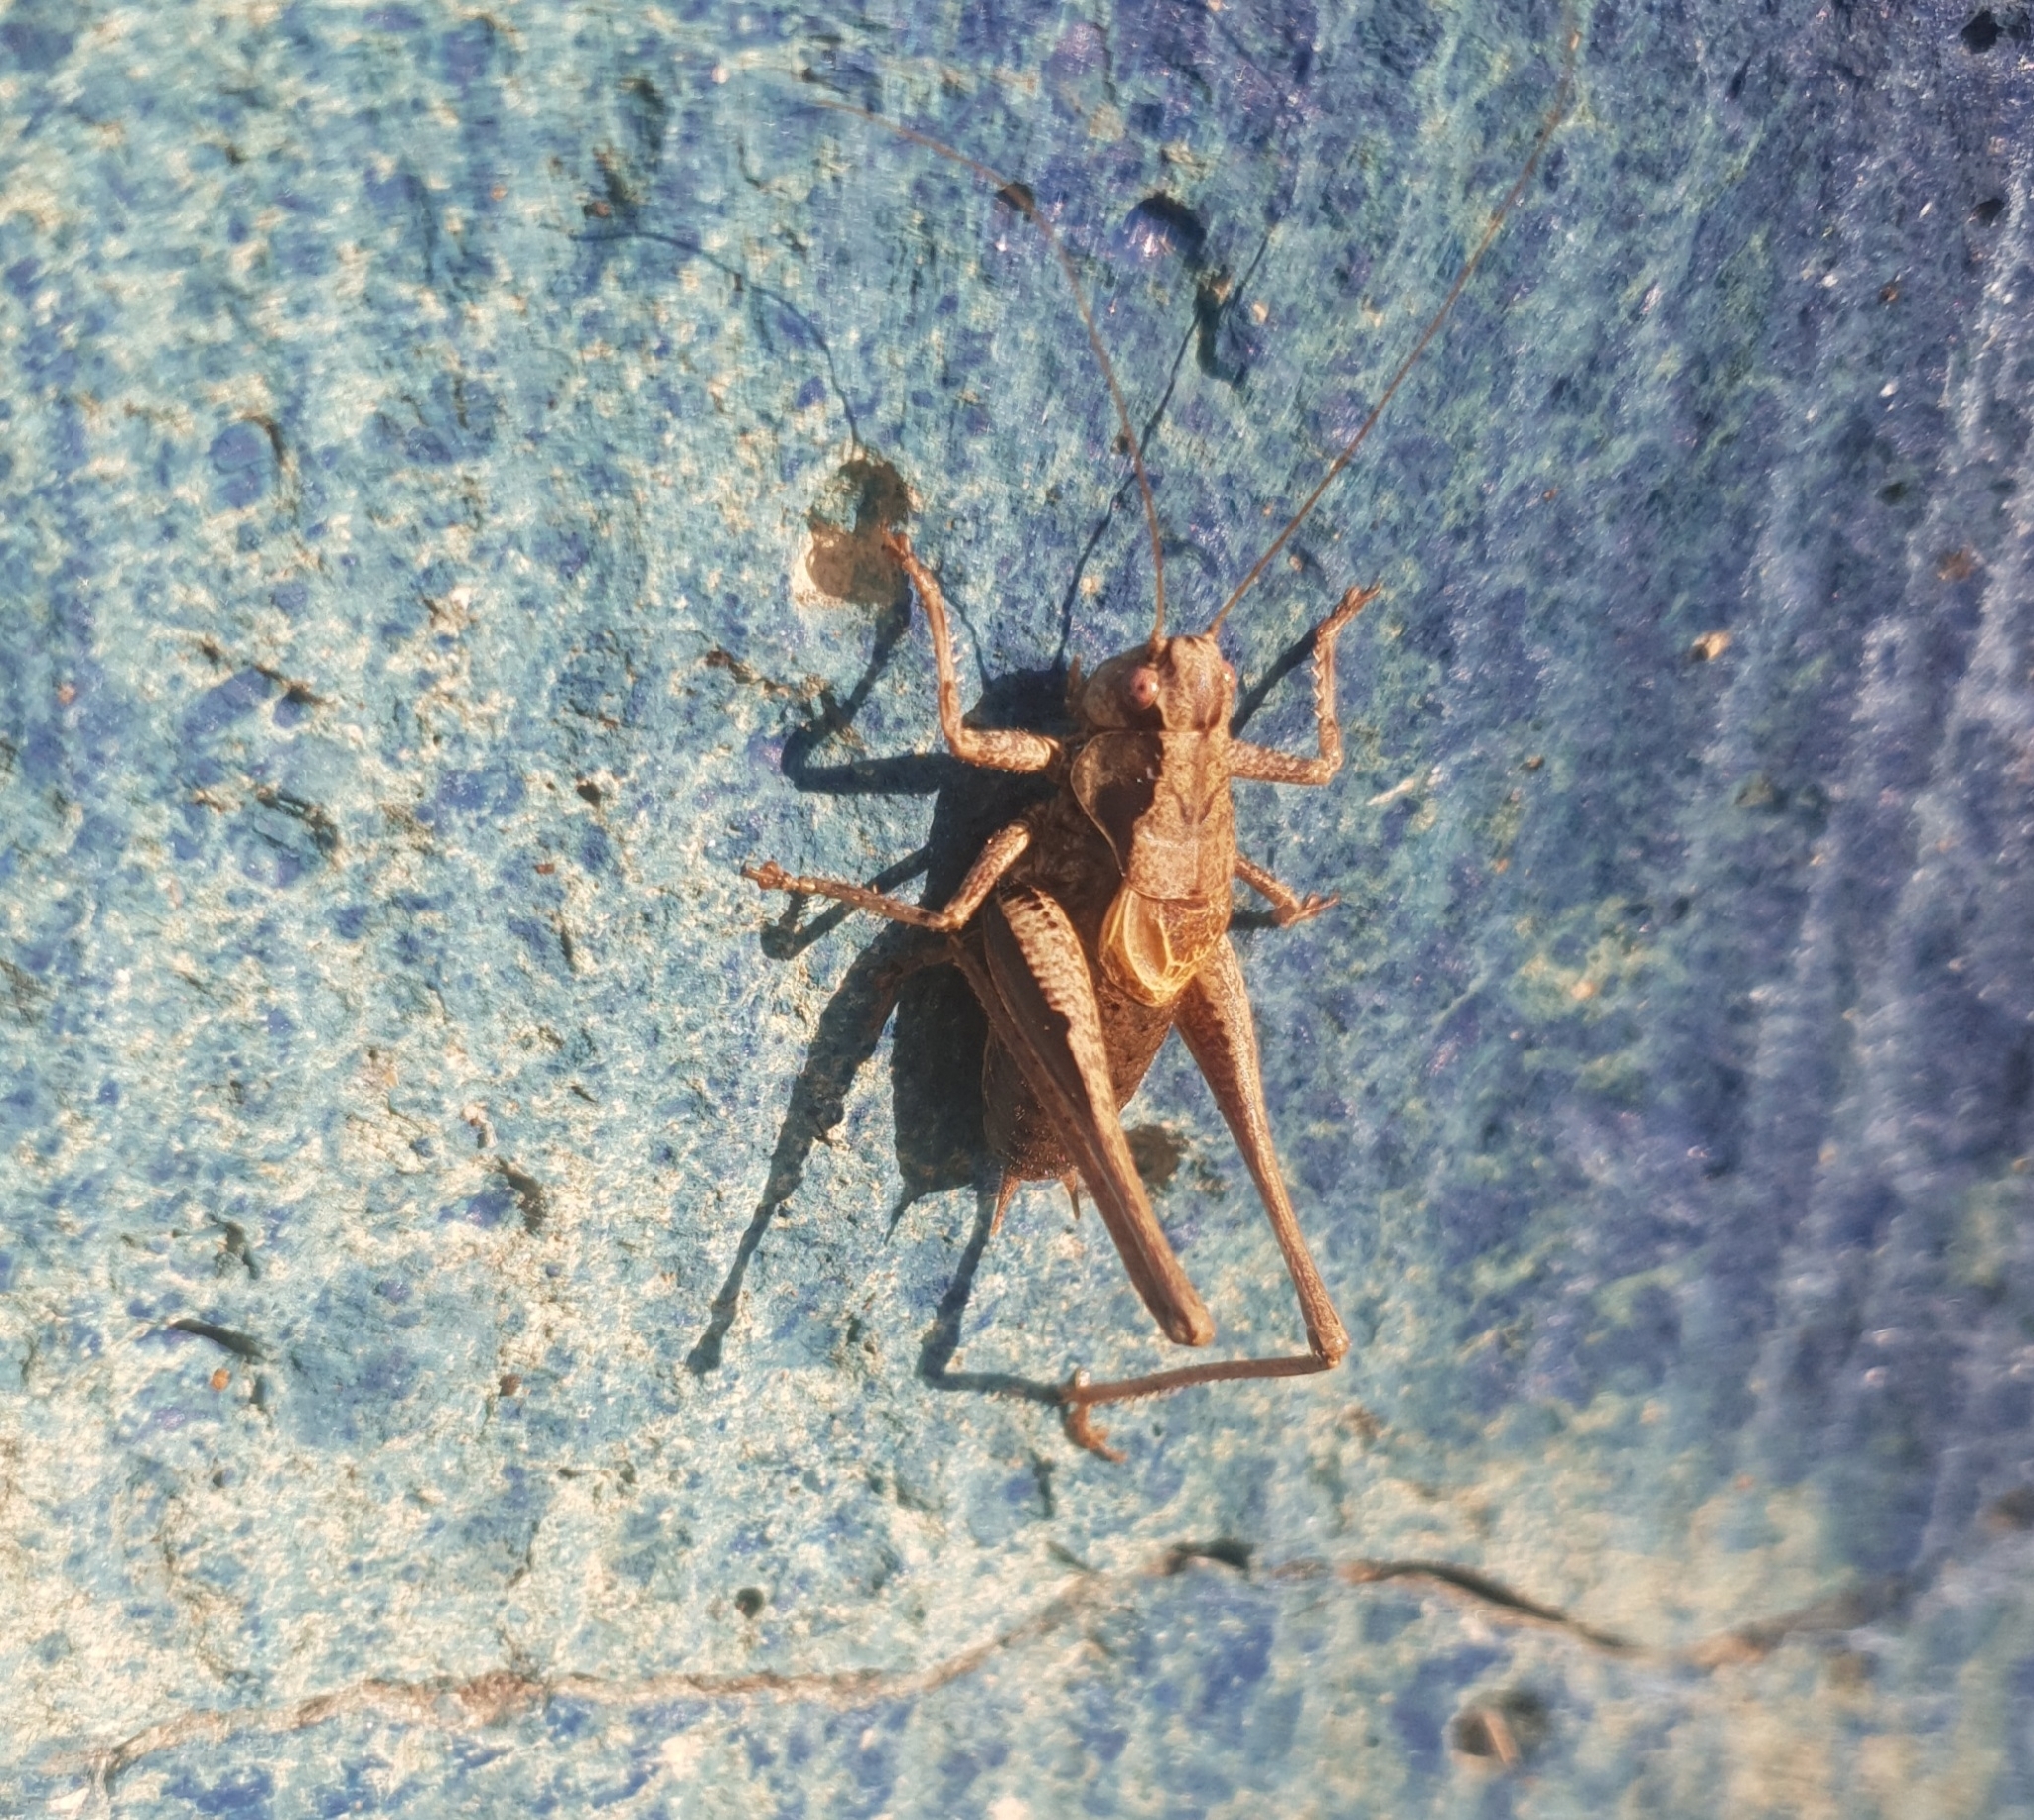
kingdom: Animalia
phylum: Arthropoda
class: Insecta
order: Orthoptera
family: Tettigoniidae
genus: Pholidoptera
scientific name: Pholidoptera griseoaptera
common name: Dark bush-cricket
